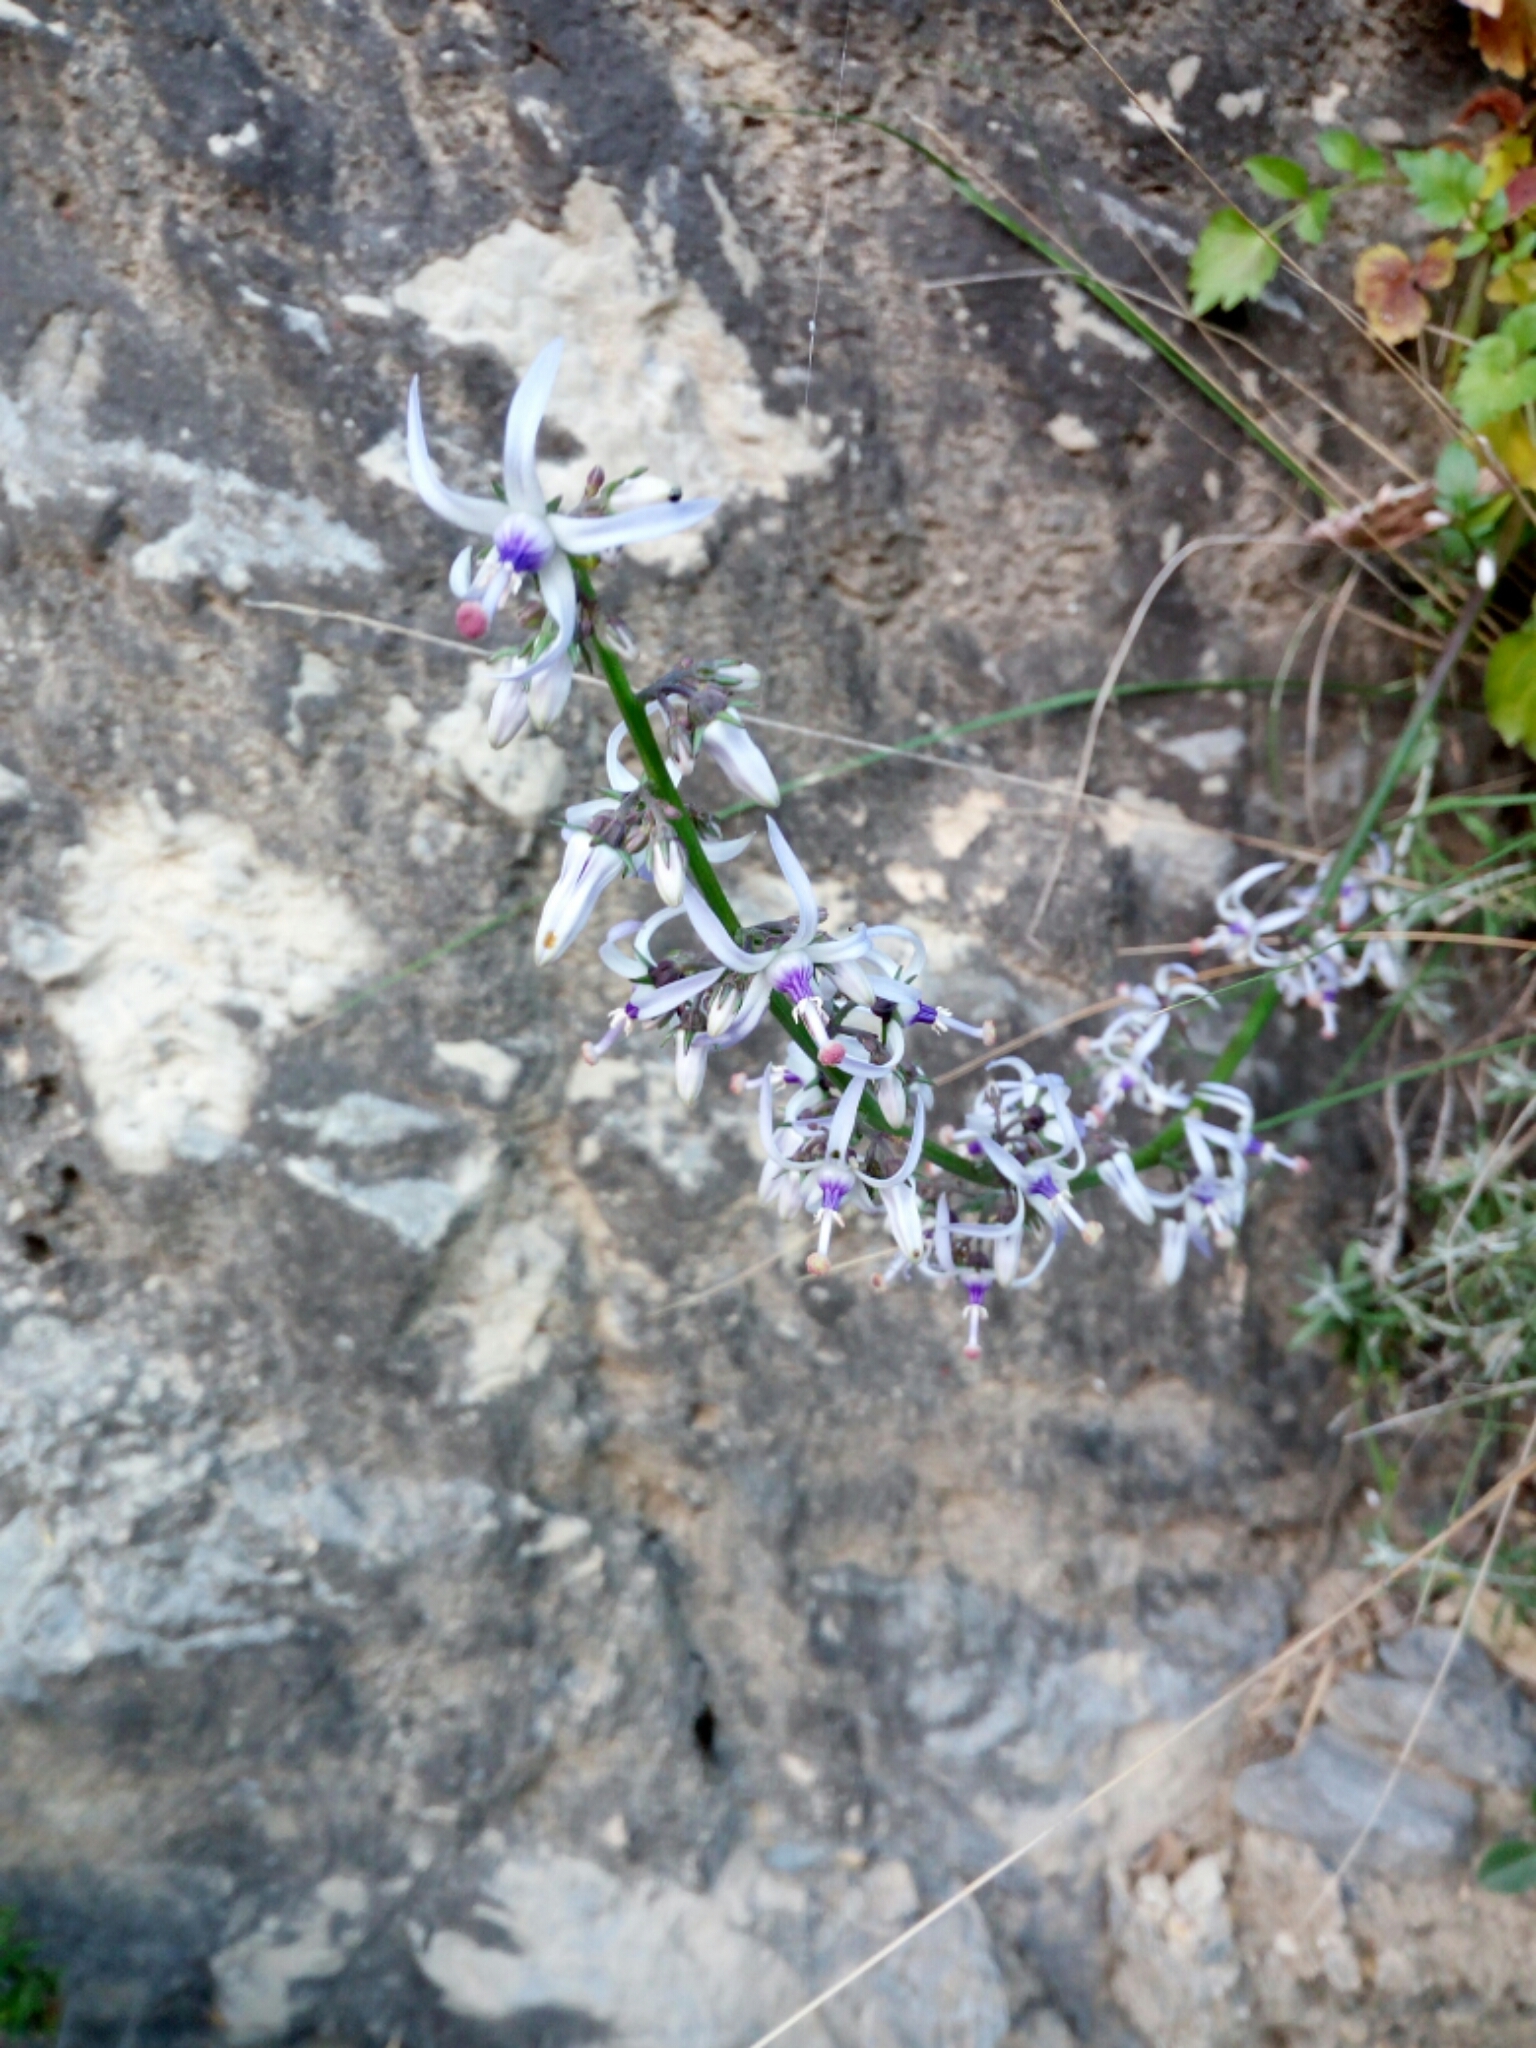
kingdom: Plantae
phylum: Tracheophyta
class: Magnoliopsida
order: Asterales
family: Campanulaceae
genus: Petromarula
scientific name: Petromarula pinnata
